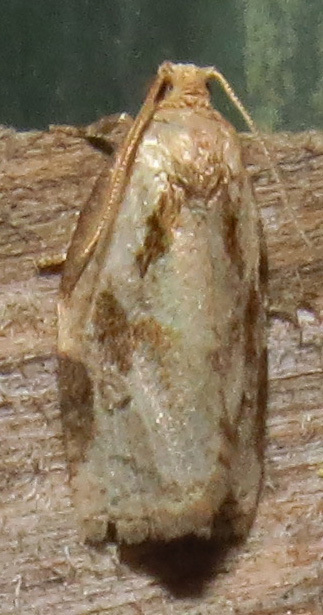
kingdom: Animalia
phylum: Arthropoda
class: Insecta
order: Lepidoptera
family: Tortricidae
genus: Archips
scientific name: Archips grisea
